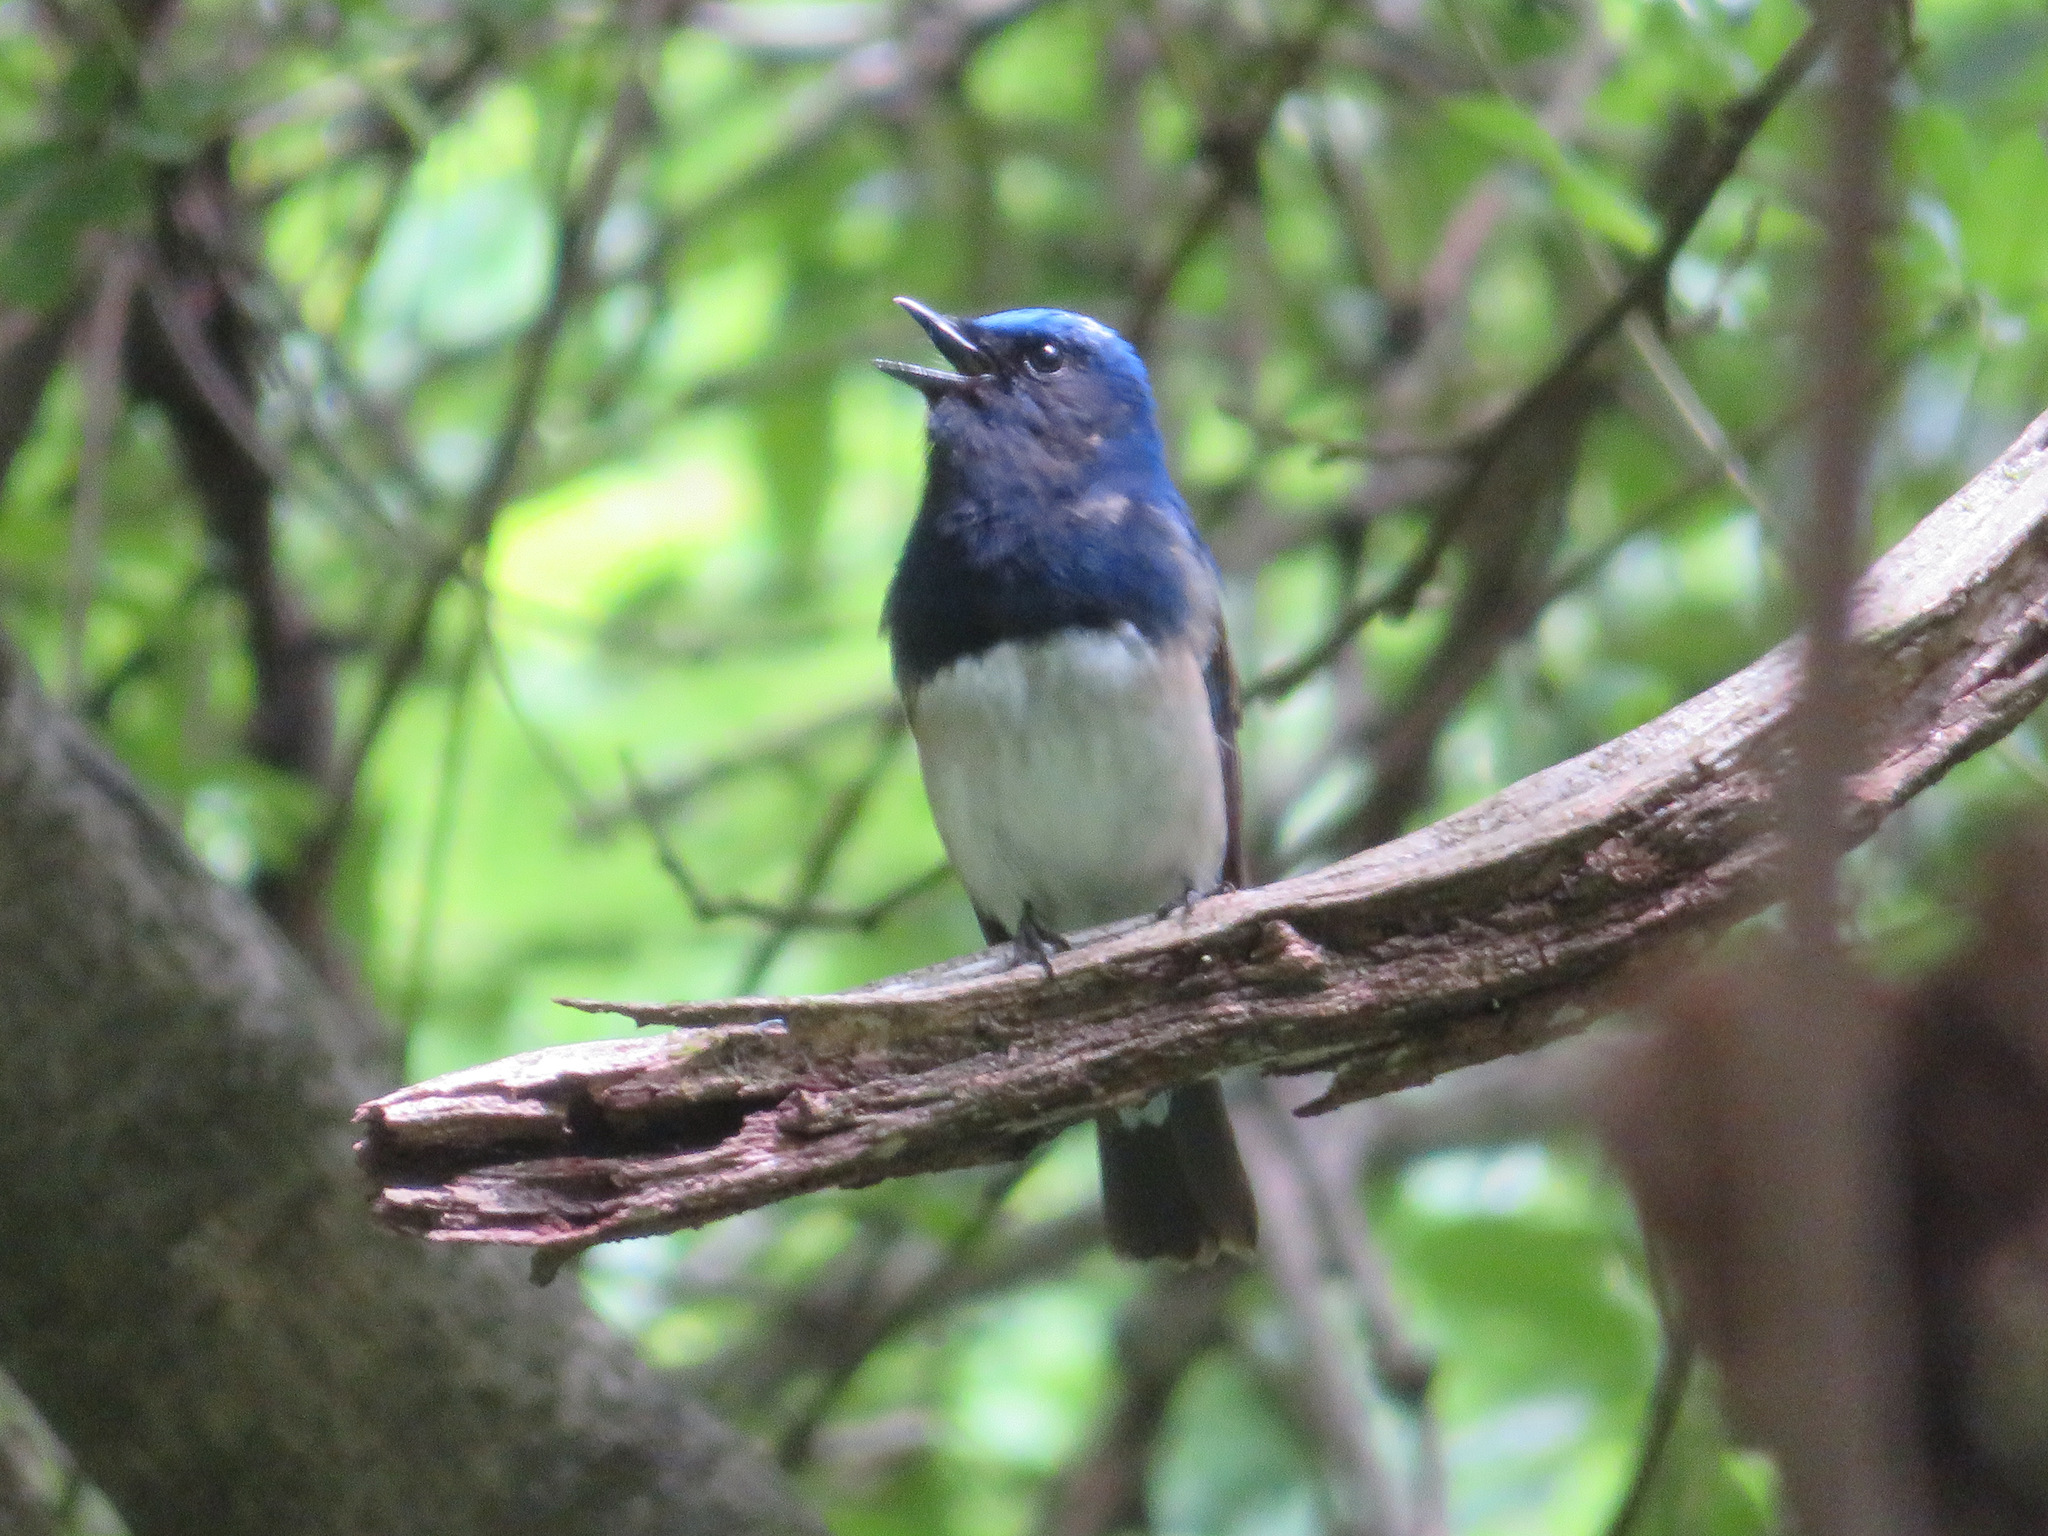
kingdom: Animalia
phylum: Chordata
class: Aves
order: Passeriformes
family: Muscicapidae
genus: Cyanoptila
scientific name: Cyanoptila cyanomelana
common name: Blue-and-white flycatcher
